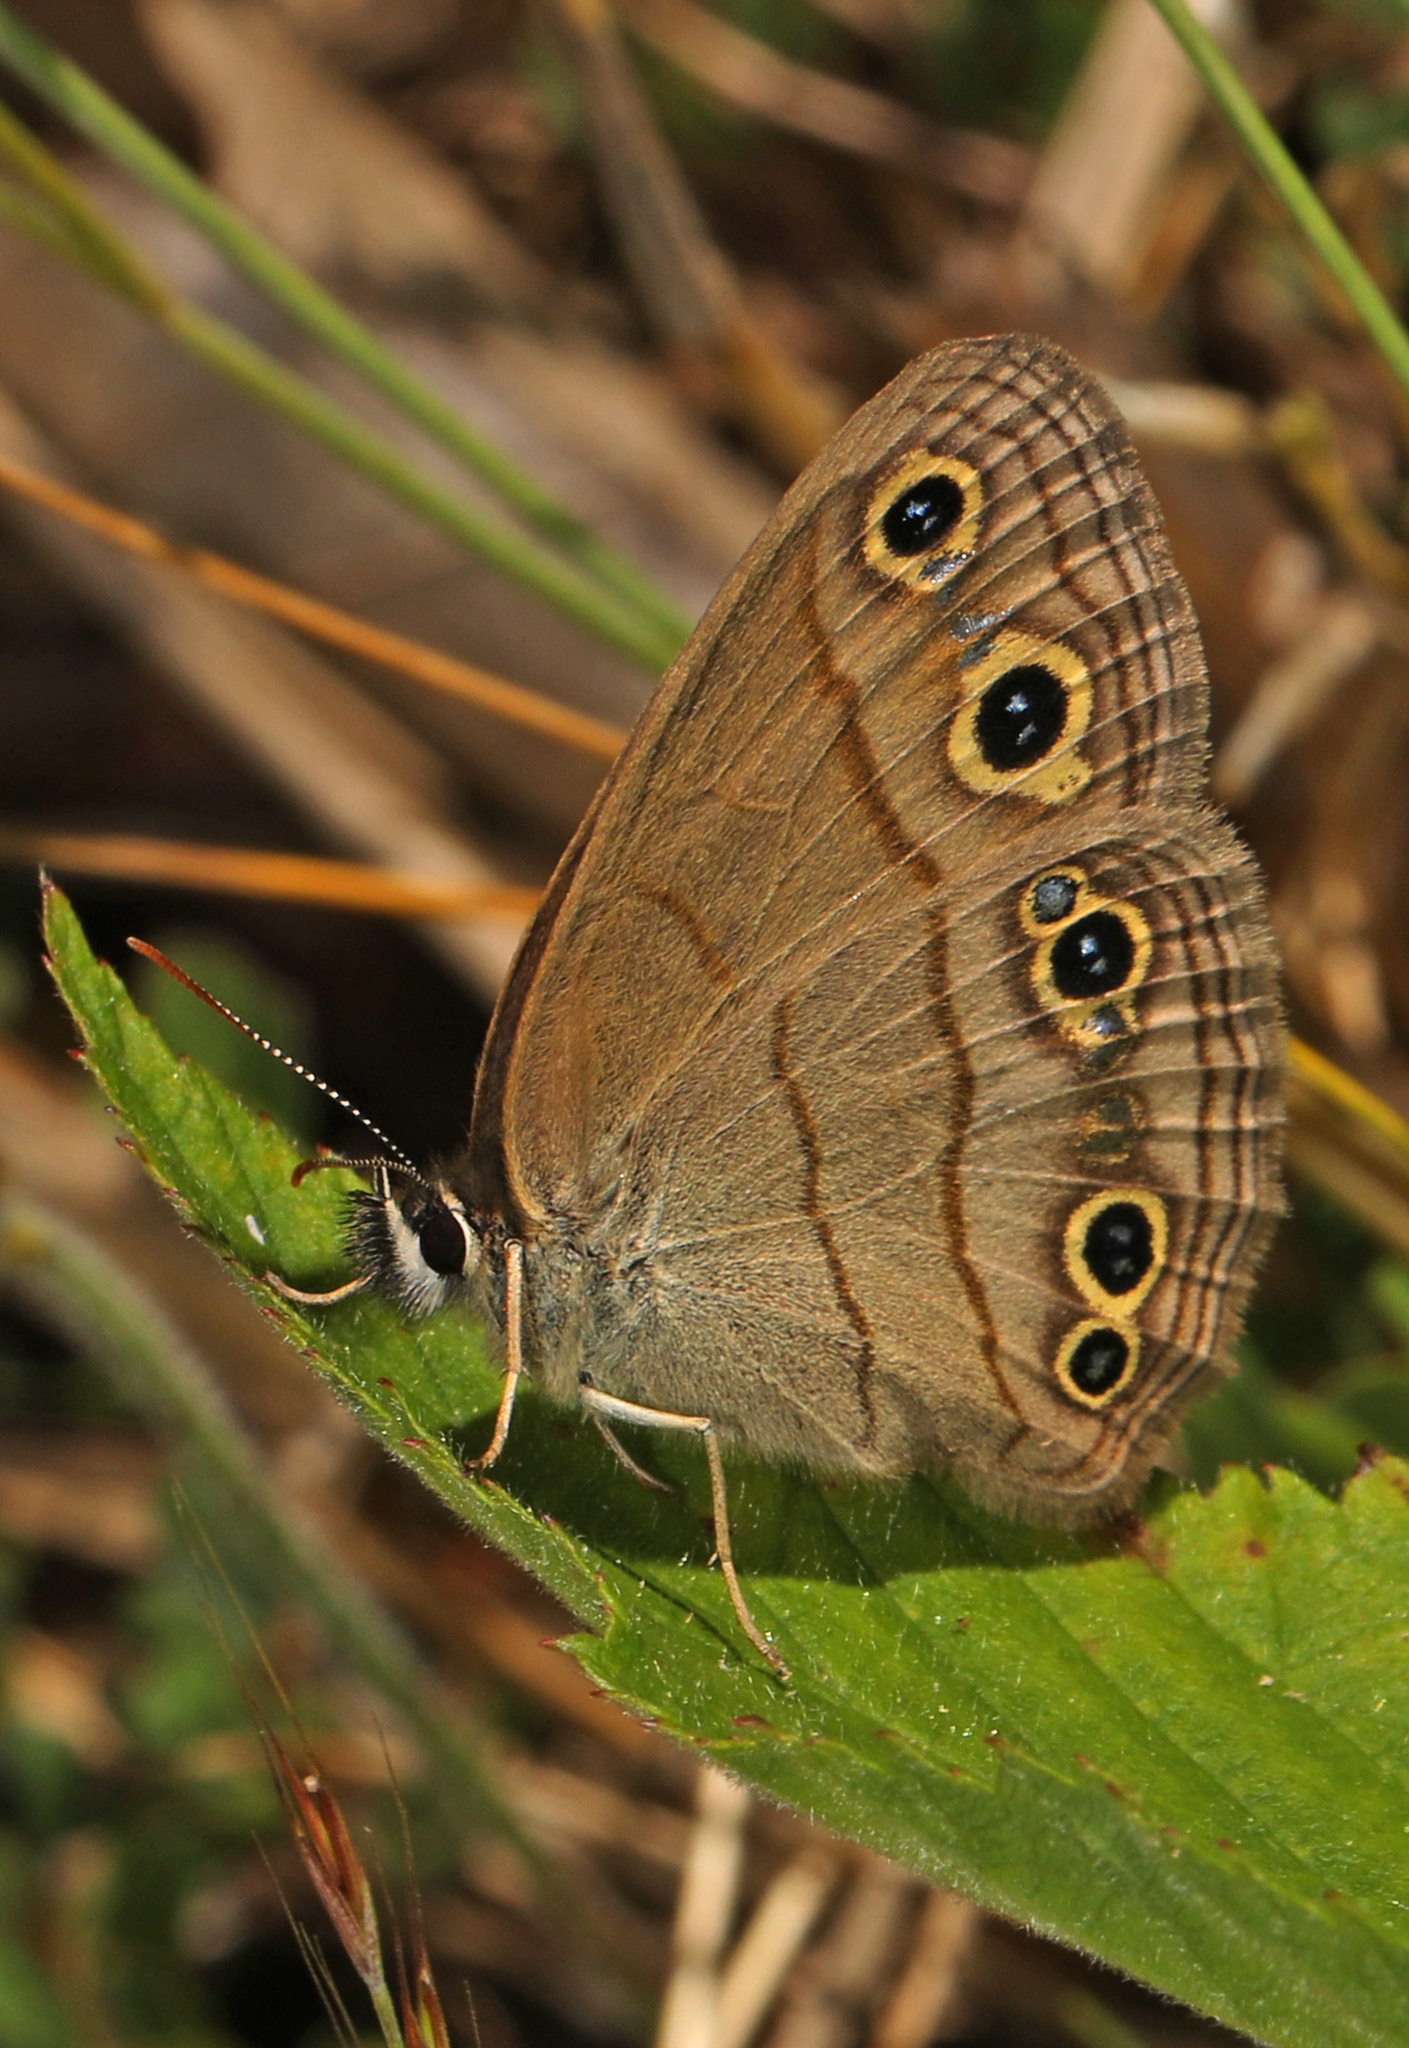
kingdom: Animalia
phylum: Arthropoda
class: Insecta
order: Lepidoptera
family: Nymphalidae
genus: Euptychia
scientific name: Euptychia cymela
